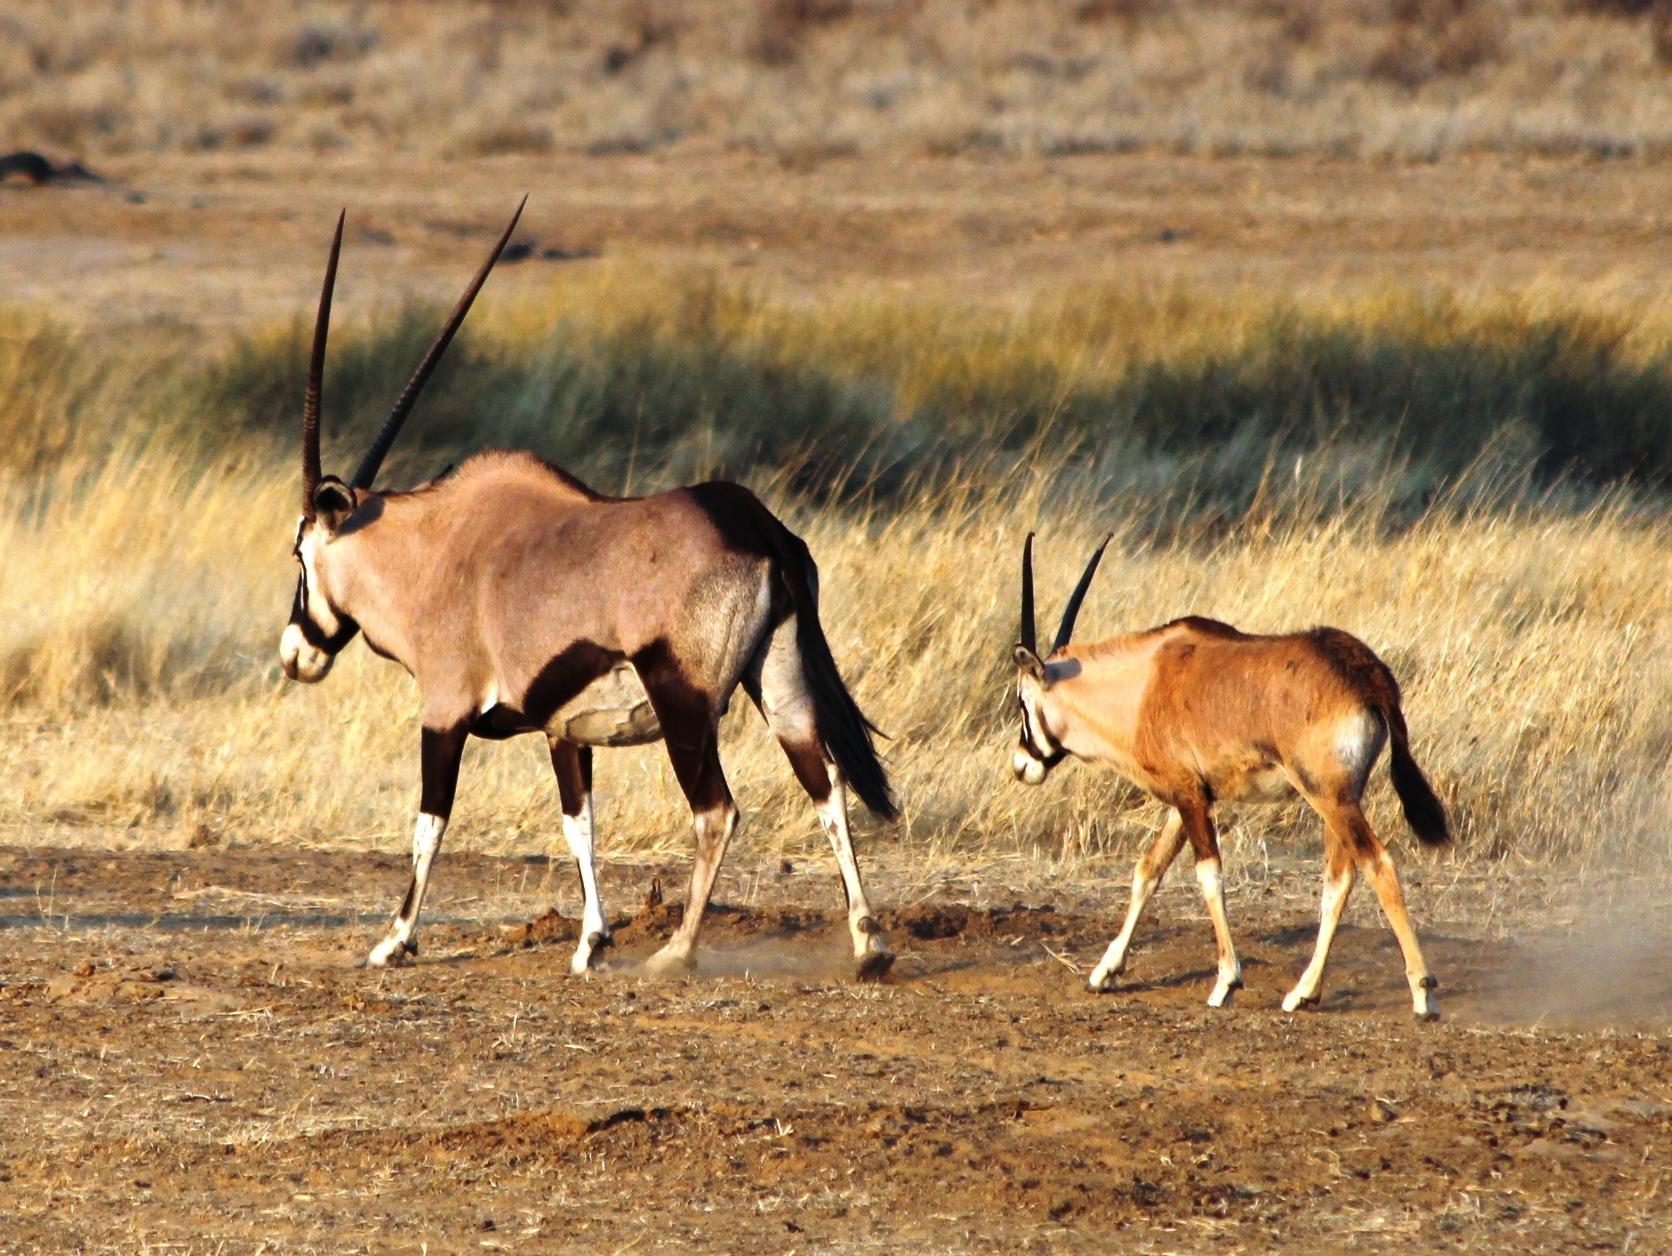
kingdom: Animalia
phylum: Chordata
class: Mammalia
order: Artiodactyla
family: Bovidae
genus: Oryx
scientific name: Oryx gazella
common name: Gemsbok
